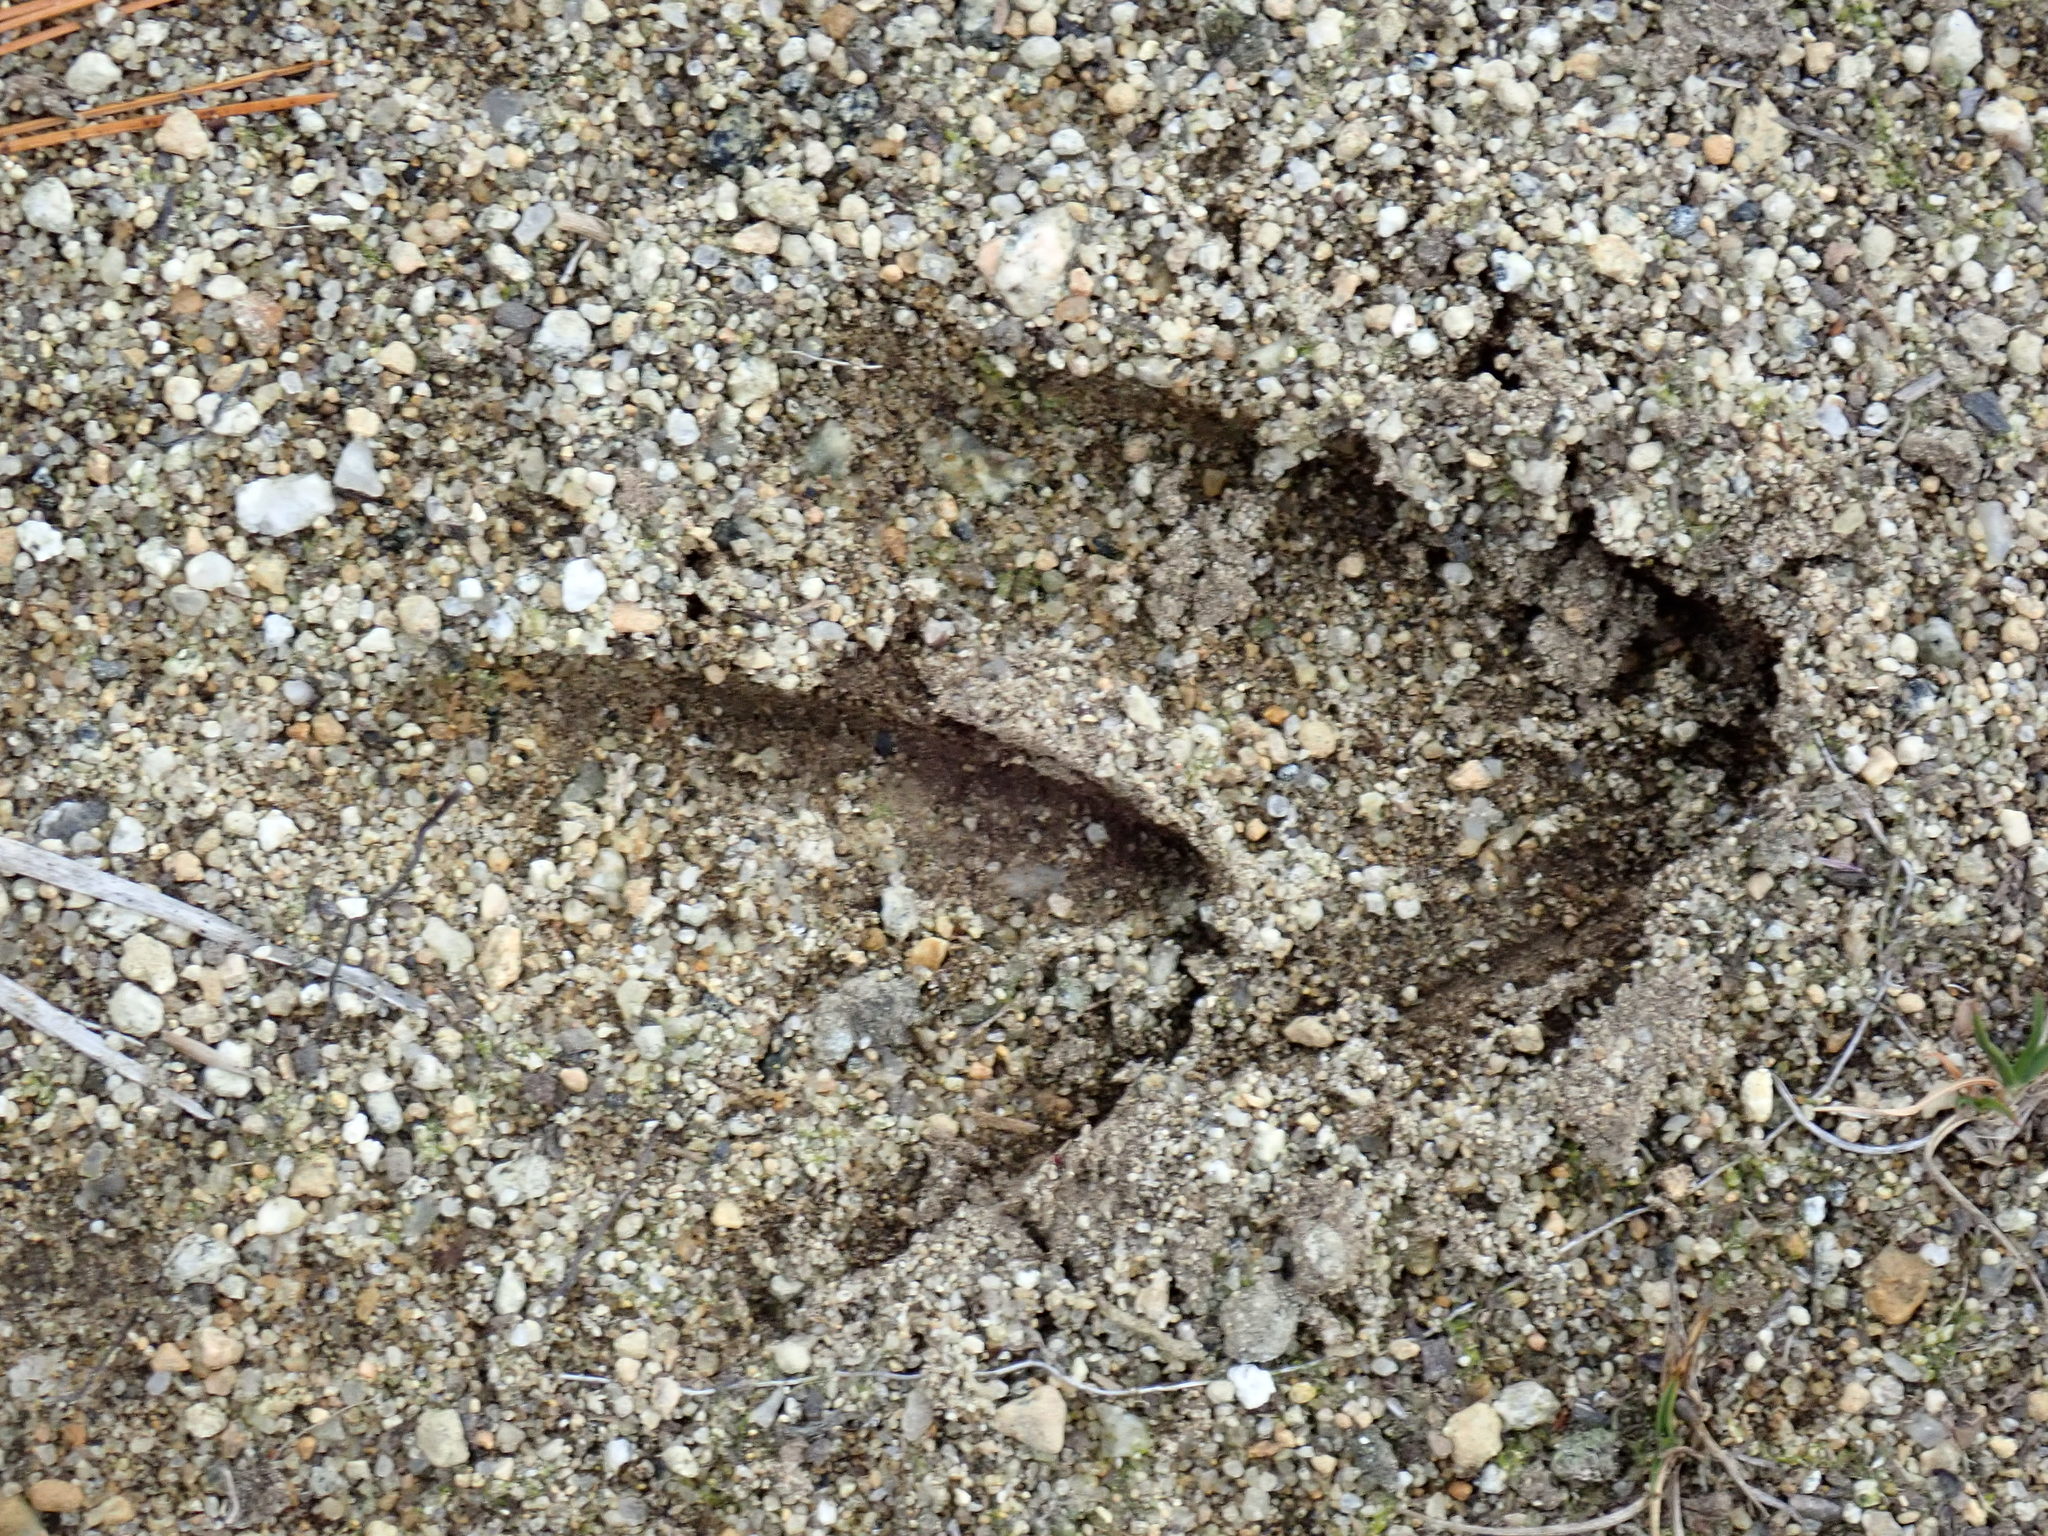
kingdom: Animalia
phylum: Chordata
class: Mammalia
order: Artiodactyla
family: Cervidae
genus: Odocoileus
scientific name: Odocoileus virginianus
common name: White-tailed deer
